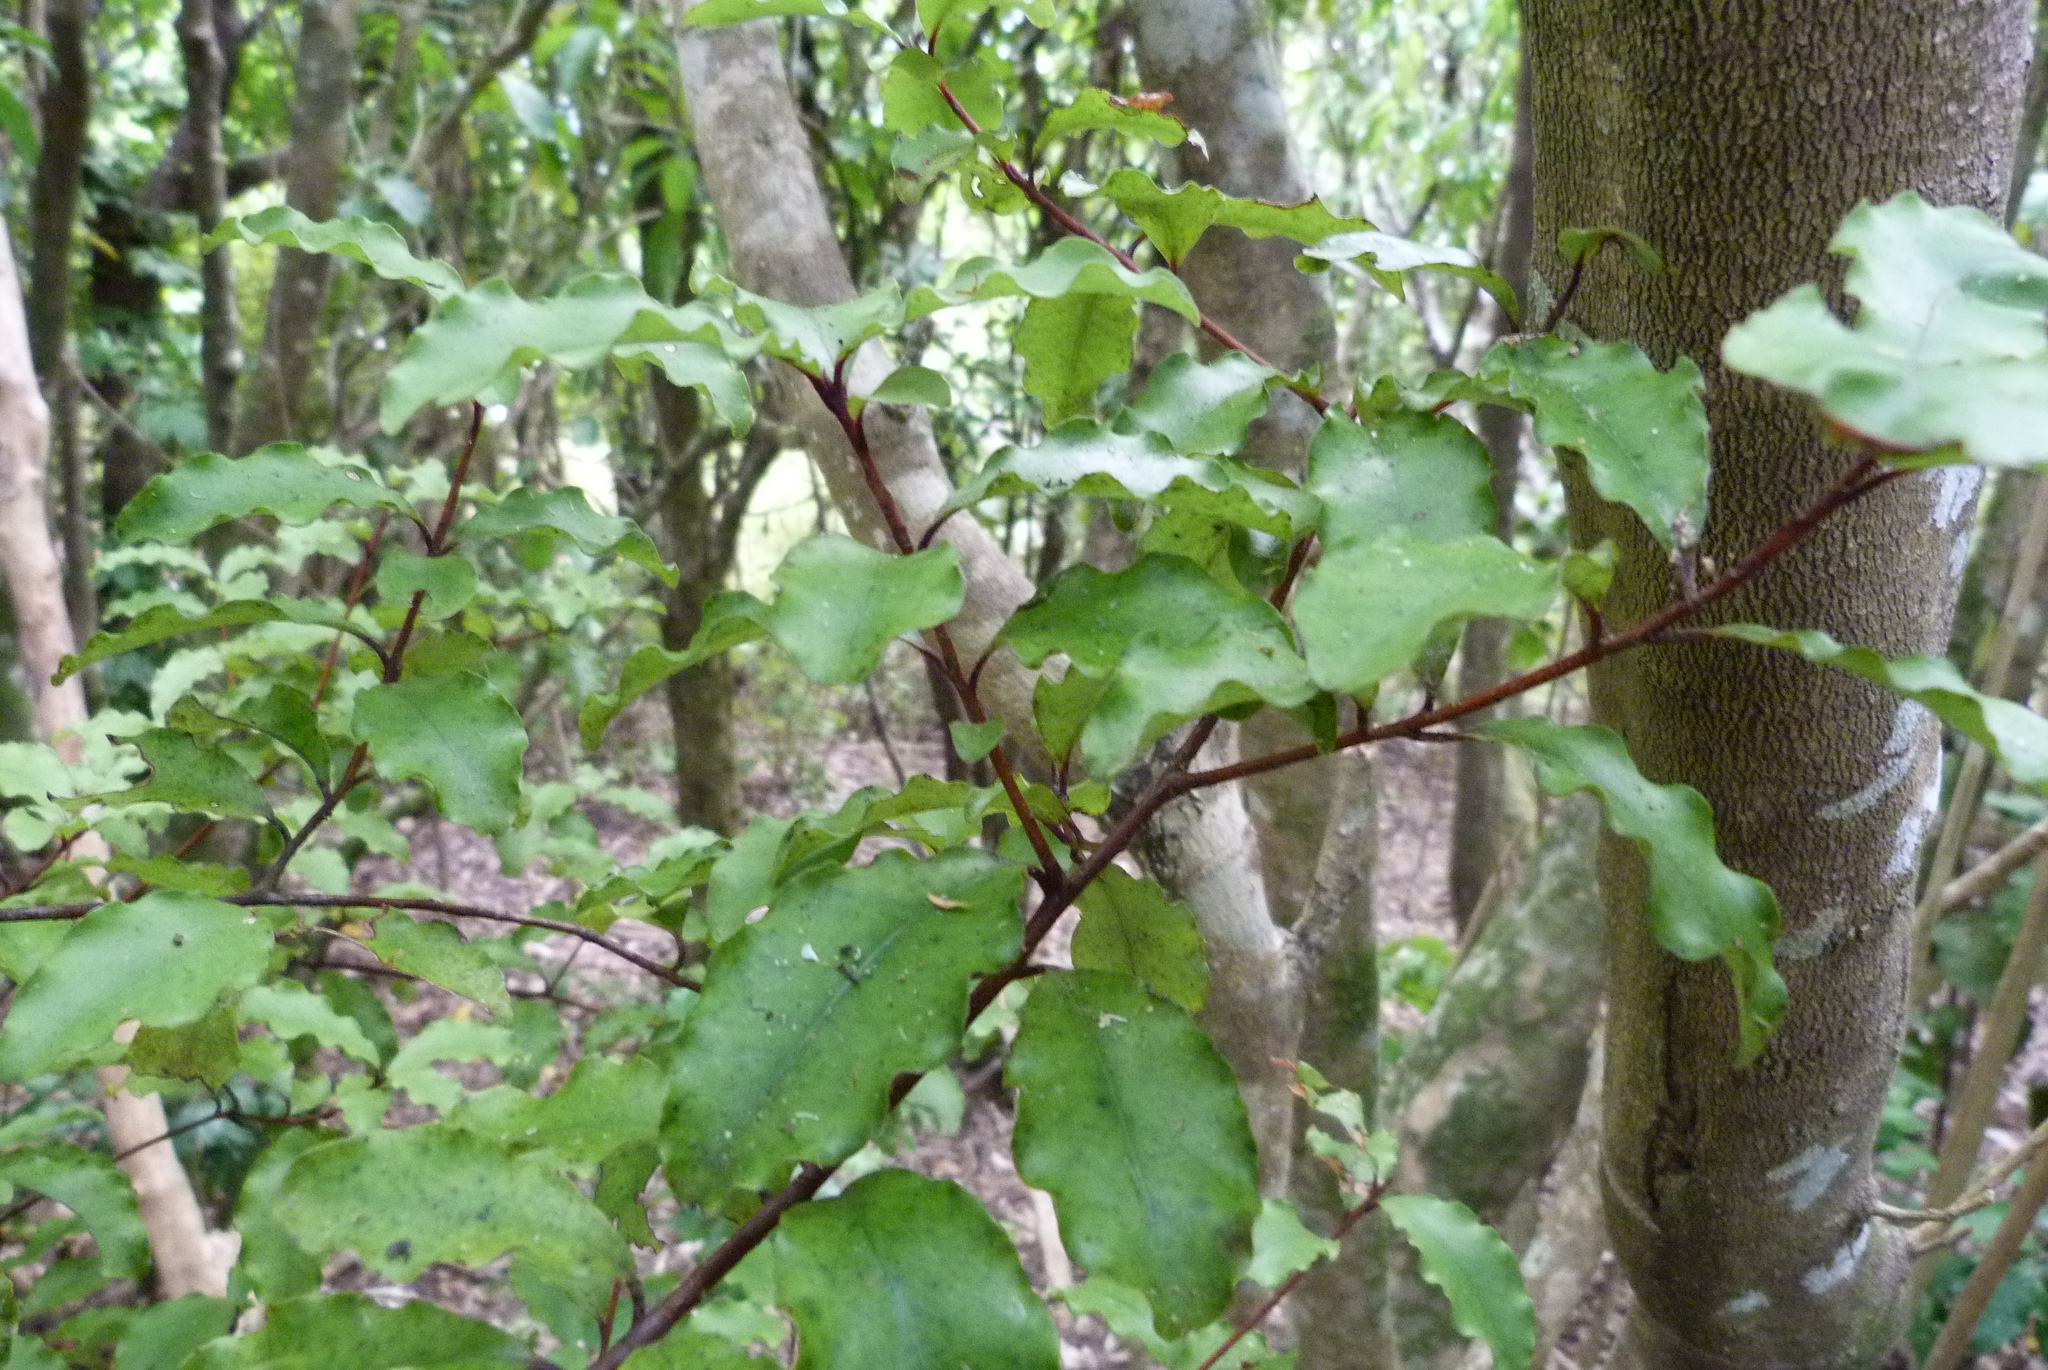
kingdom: Plantae
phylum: Tracheophyta
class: Magnoliopsida
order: Ericales
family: Primulaceae
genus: Myrsine
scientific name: Myrsine australis
